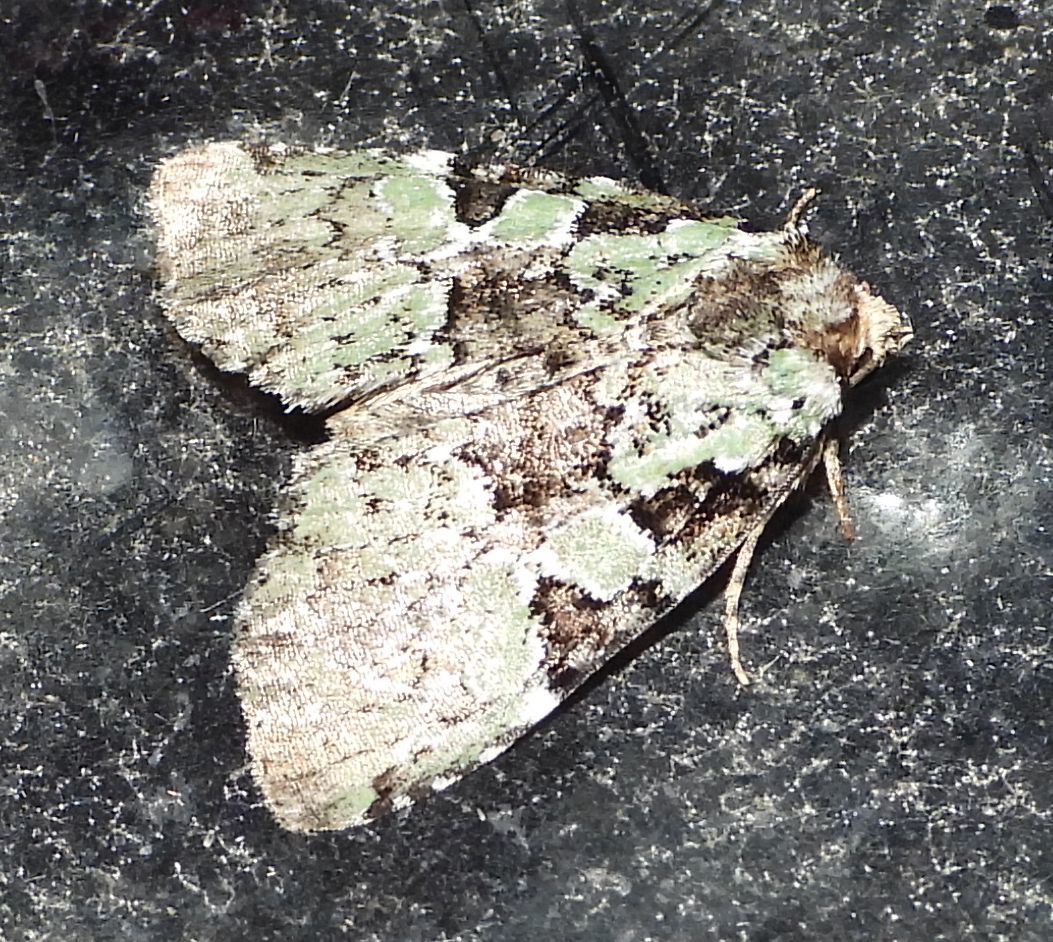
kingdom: Animalia
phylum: Arthropoda
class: Insecta
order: Lepidoptera
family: Noctuidae
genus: Leuconycta
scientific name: Leuconycta lepidula
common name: Marbled-green leuconycta moth
